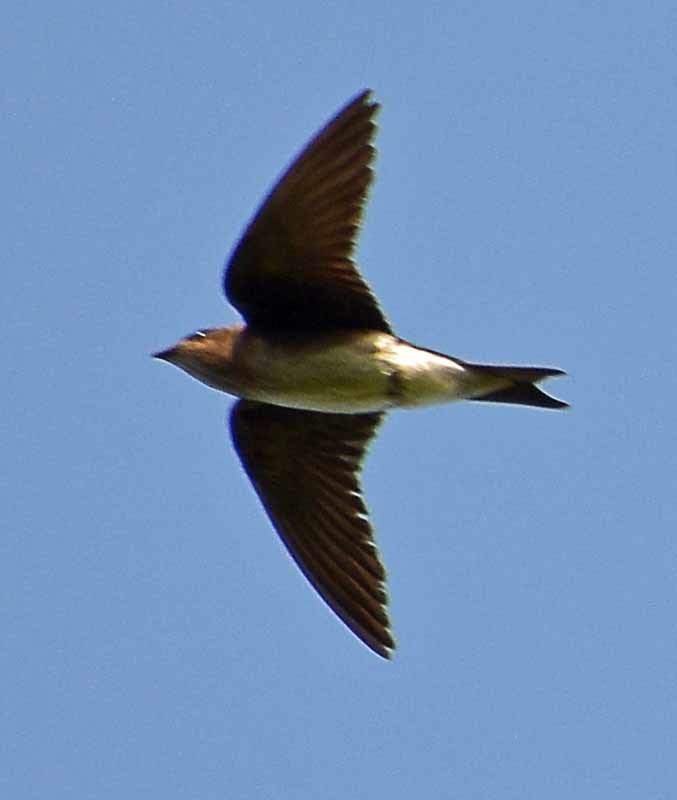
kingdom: Animalia
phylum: Chordata
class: Aves
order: Passeriformes
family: Hirundinidae
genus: Progne
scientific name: Progne chalybea
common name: Grey-breasted martin
